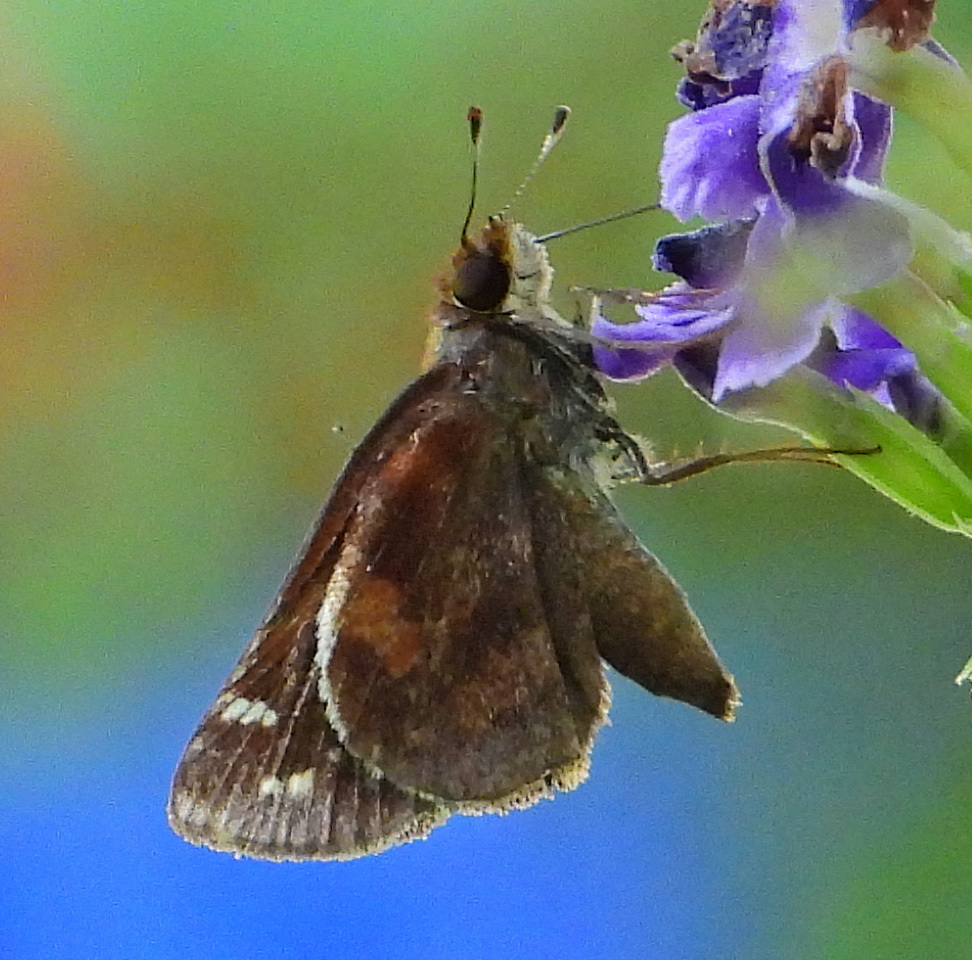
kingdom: Animalia
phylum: Arthropoda
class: Insecta
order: Lepidoptera
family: Hesperiidae
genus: Lon
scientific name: Lon zabulon
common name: Zabulon skipper
